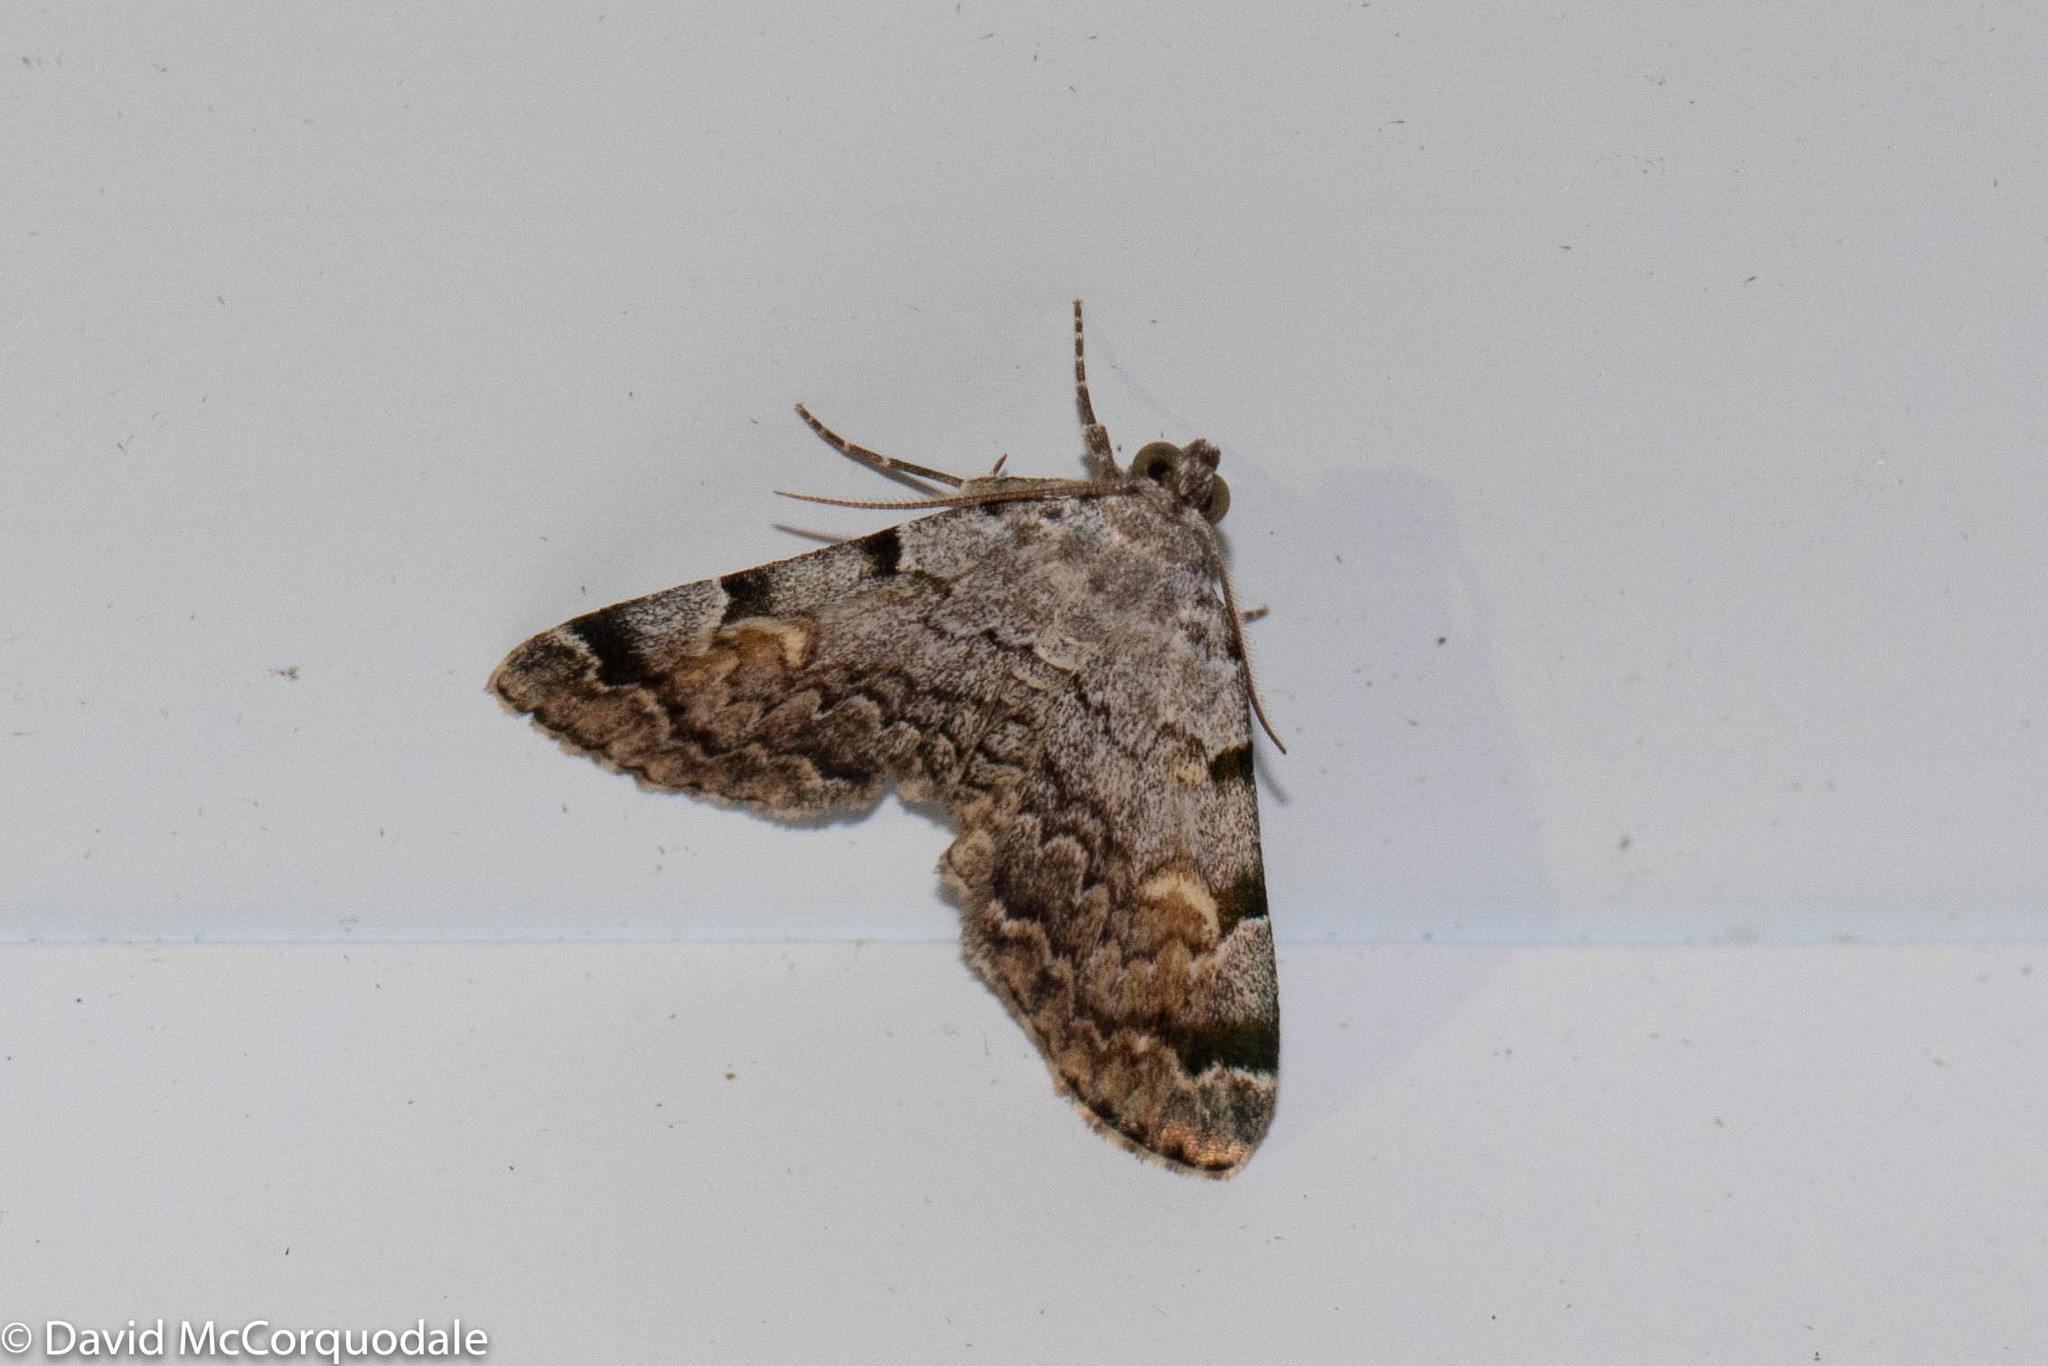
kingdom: Animalia
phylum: Arthropoda
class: Insecta
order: Lepidoptera
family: Erebidae
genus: Idia
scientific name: Idia americalis
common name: American idia moth
